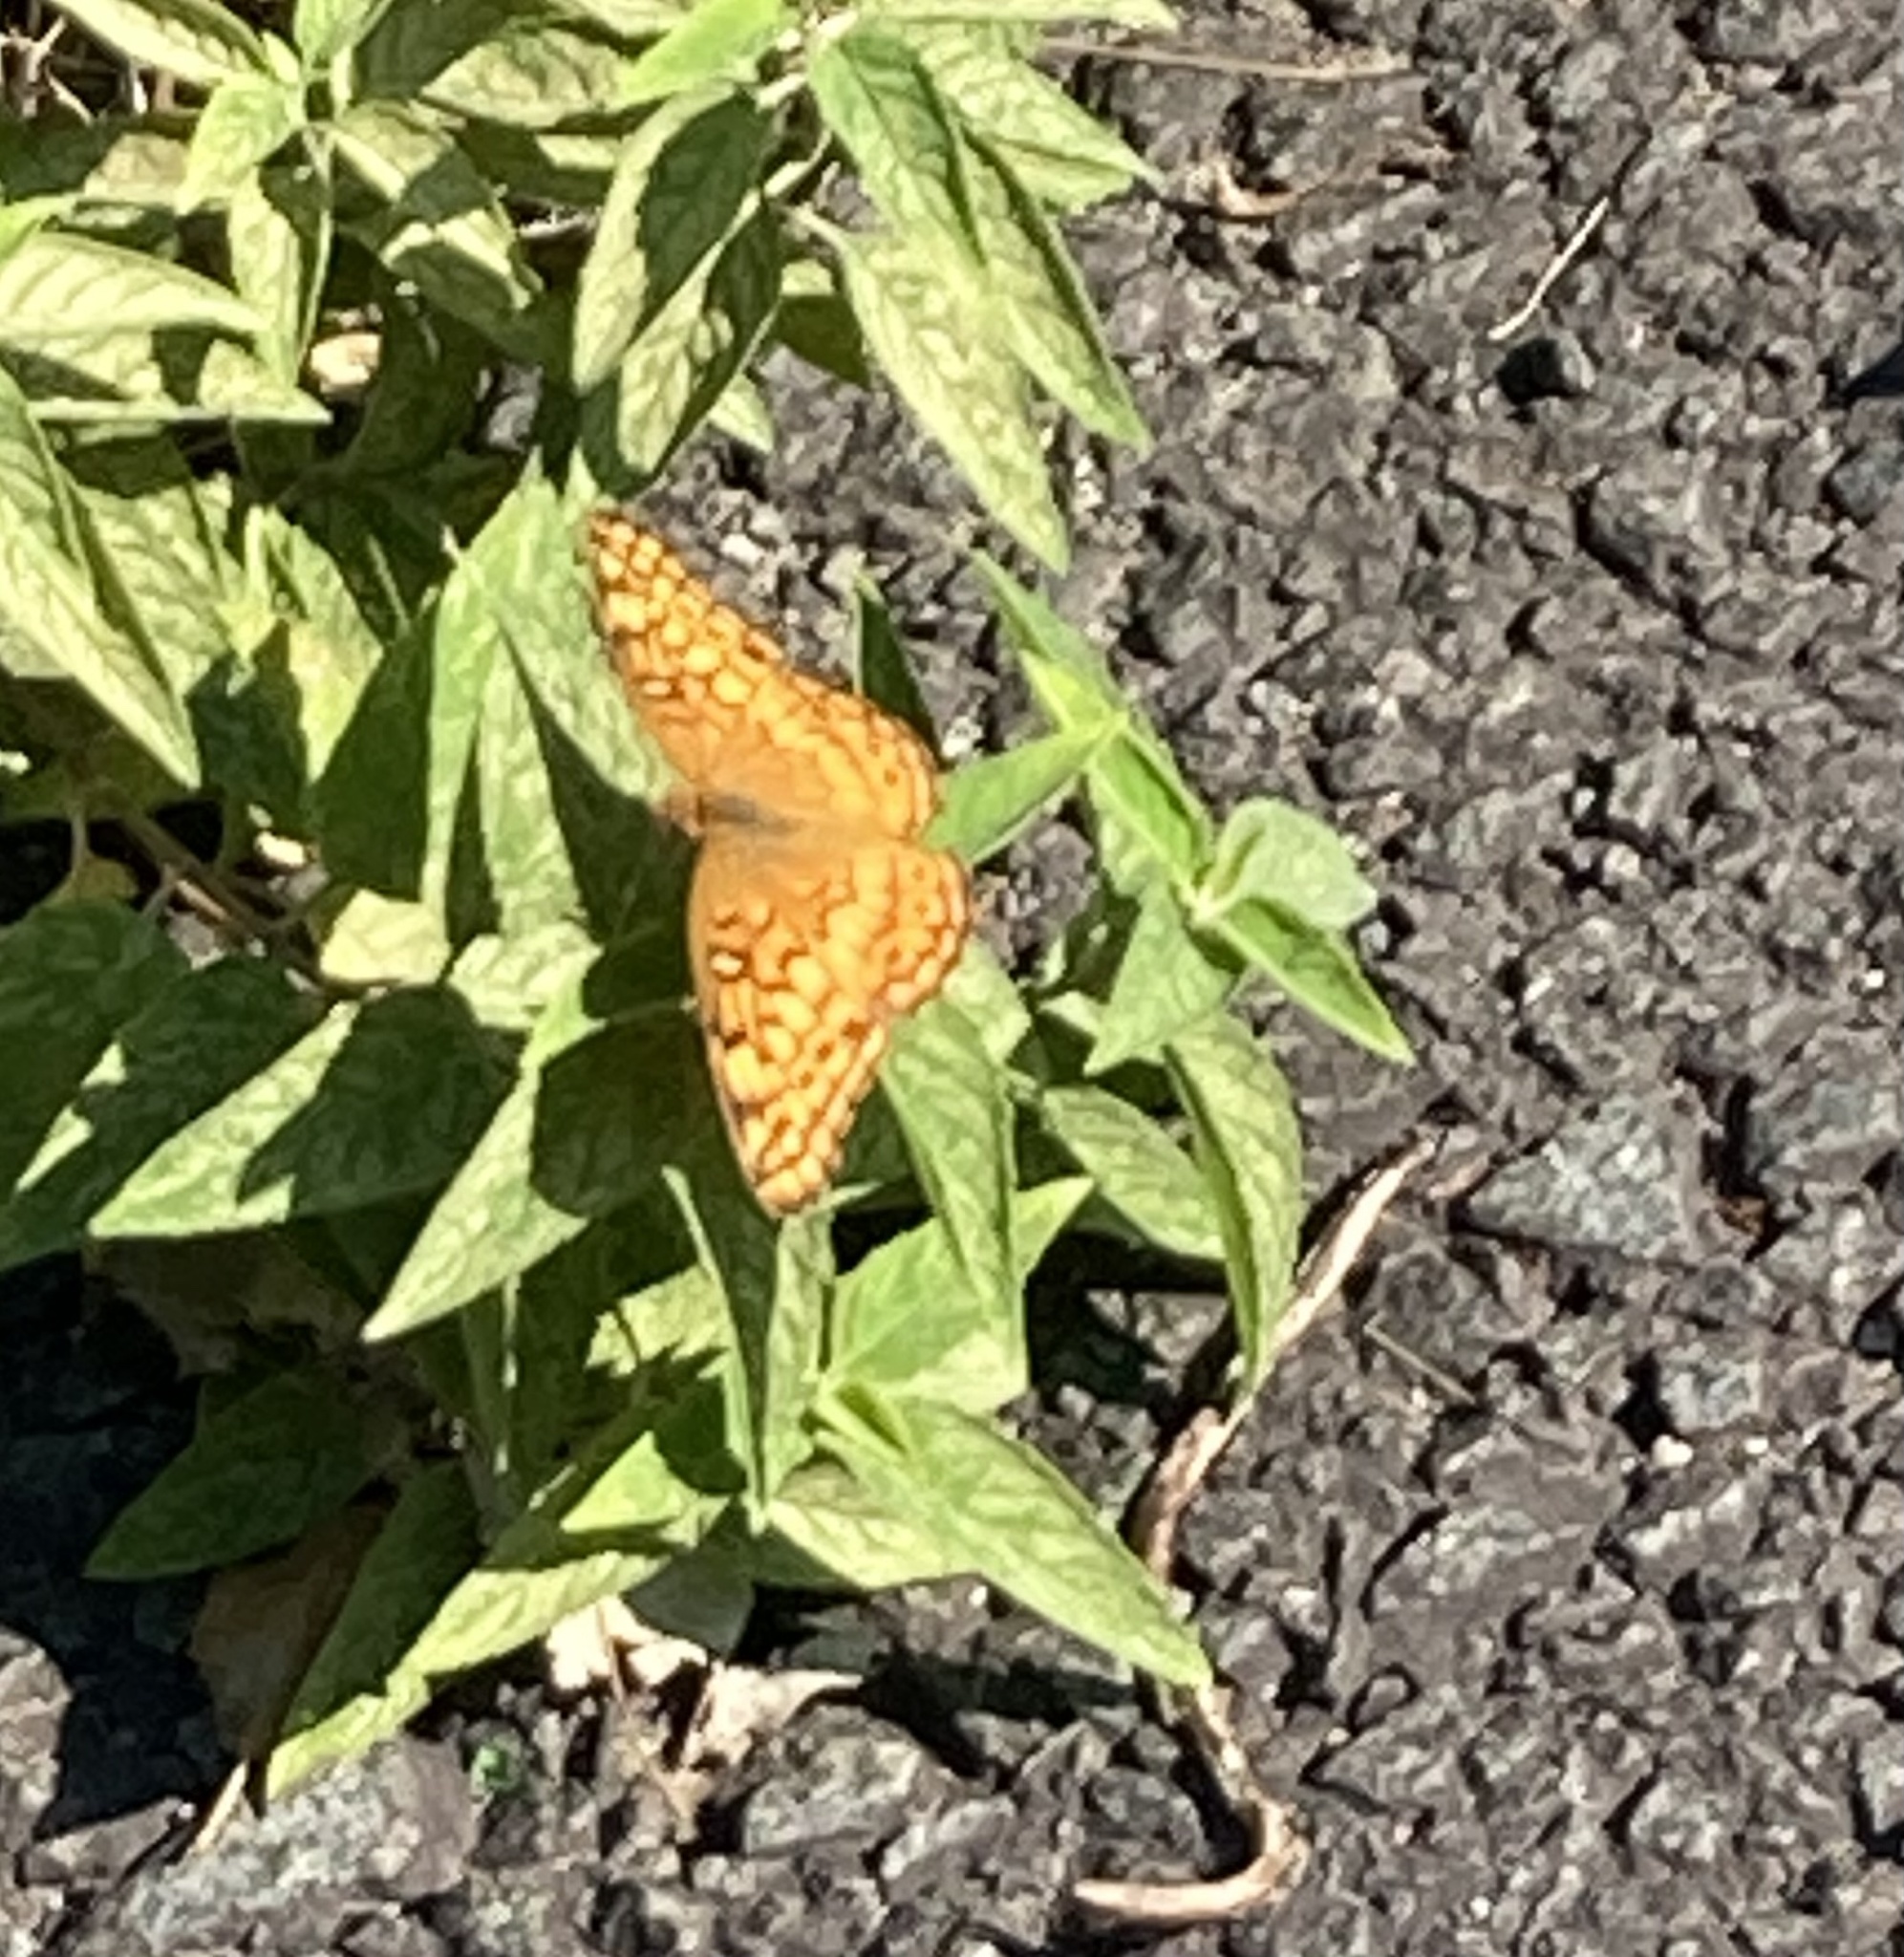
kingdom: Animalia
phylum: Arthropoda
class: Insecta
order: Lepidoptera
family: Nymphalidae
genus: Euptoieta
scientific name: Euptoieta claudia
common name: Variegated fritillary
